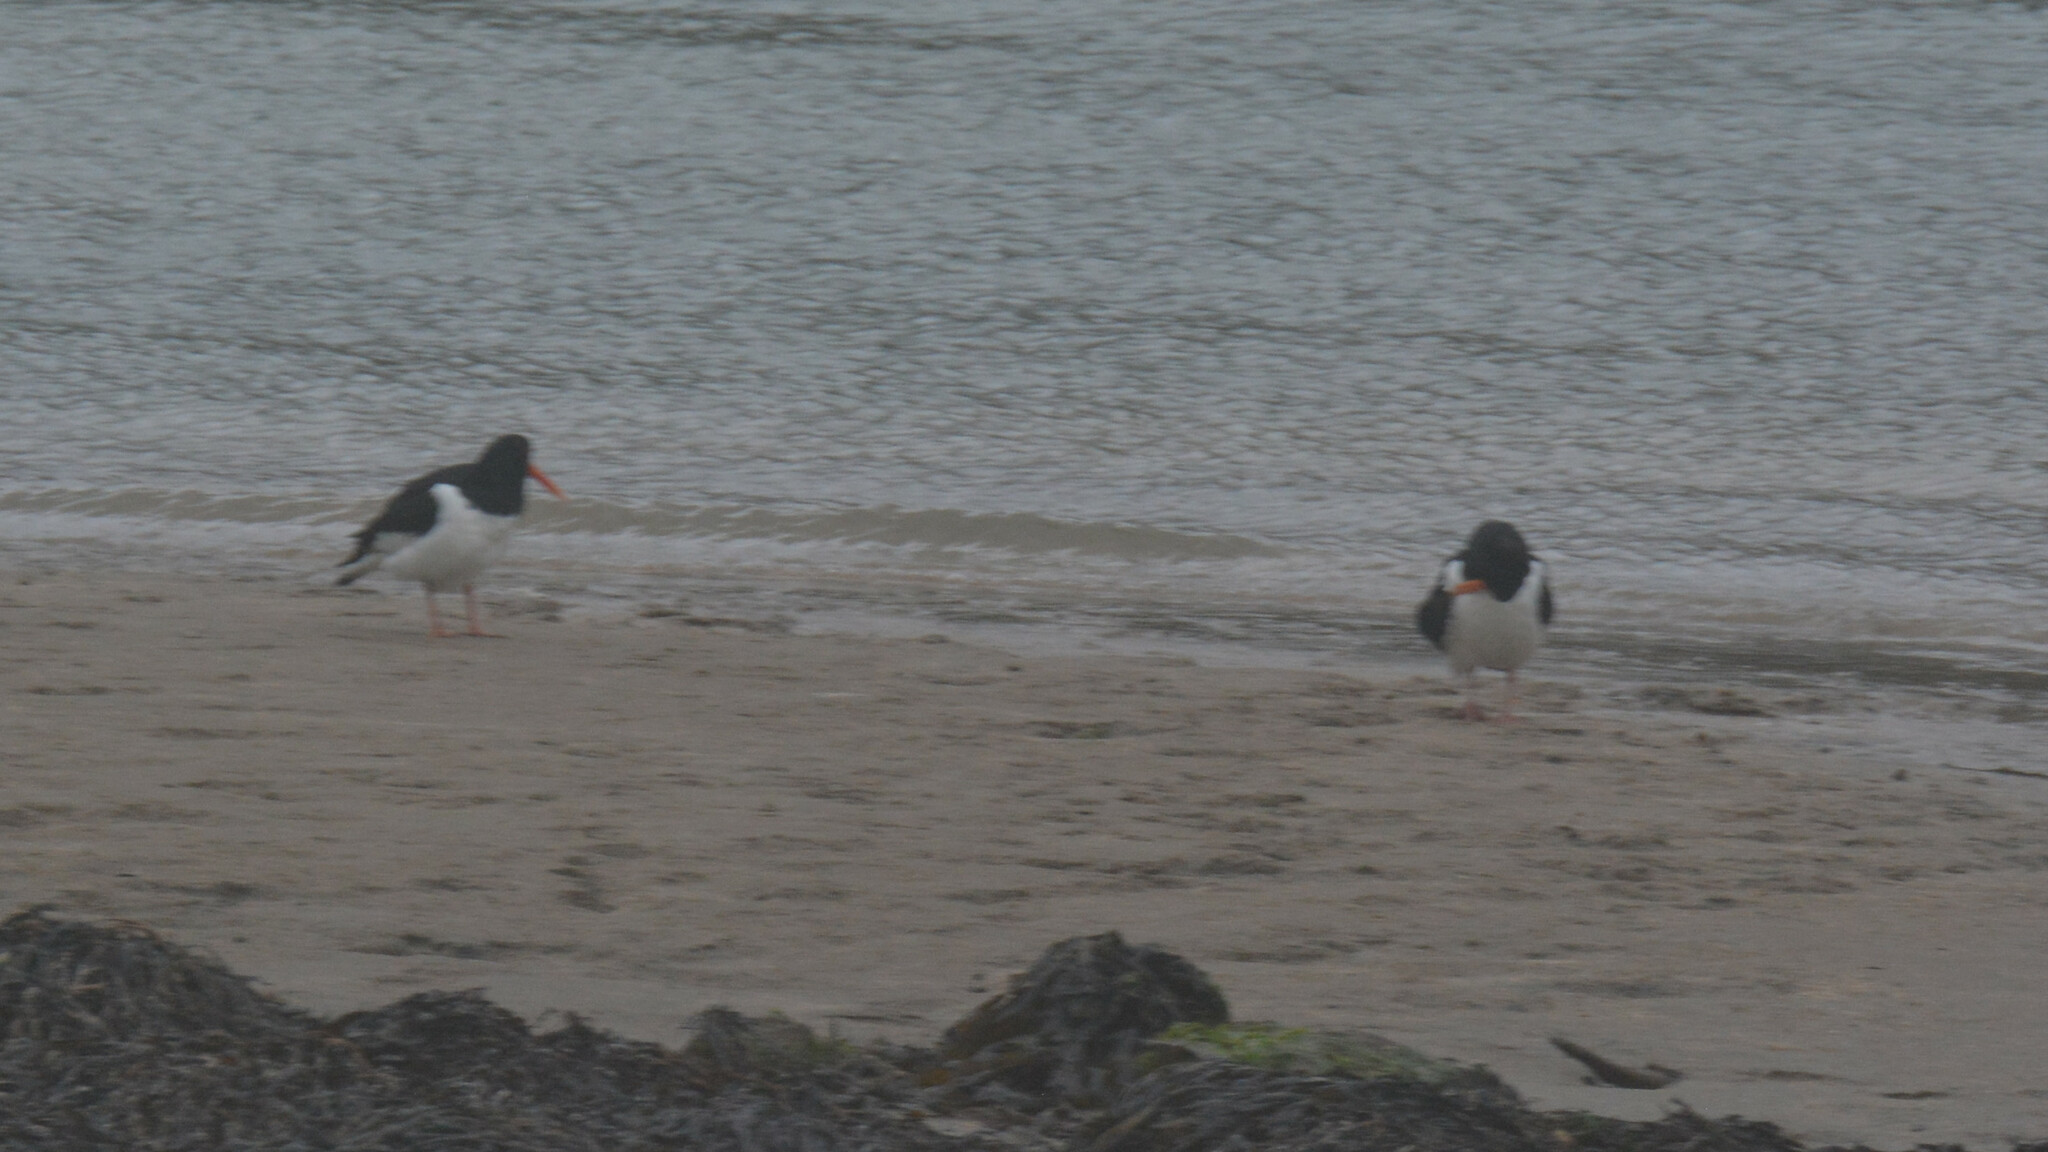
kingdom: Animalia
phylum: Chordata
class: Aves
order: Charadriiformes
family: Haematopodidae
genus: Haematopus
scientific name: Haematopus ostralegus
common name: Eurasian oystercatcher
